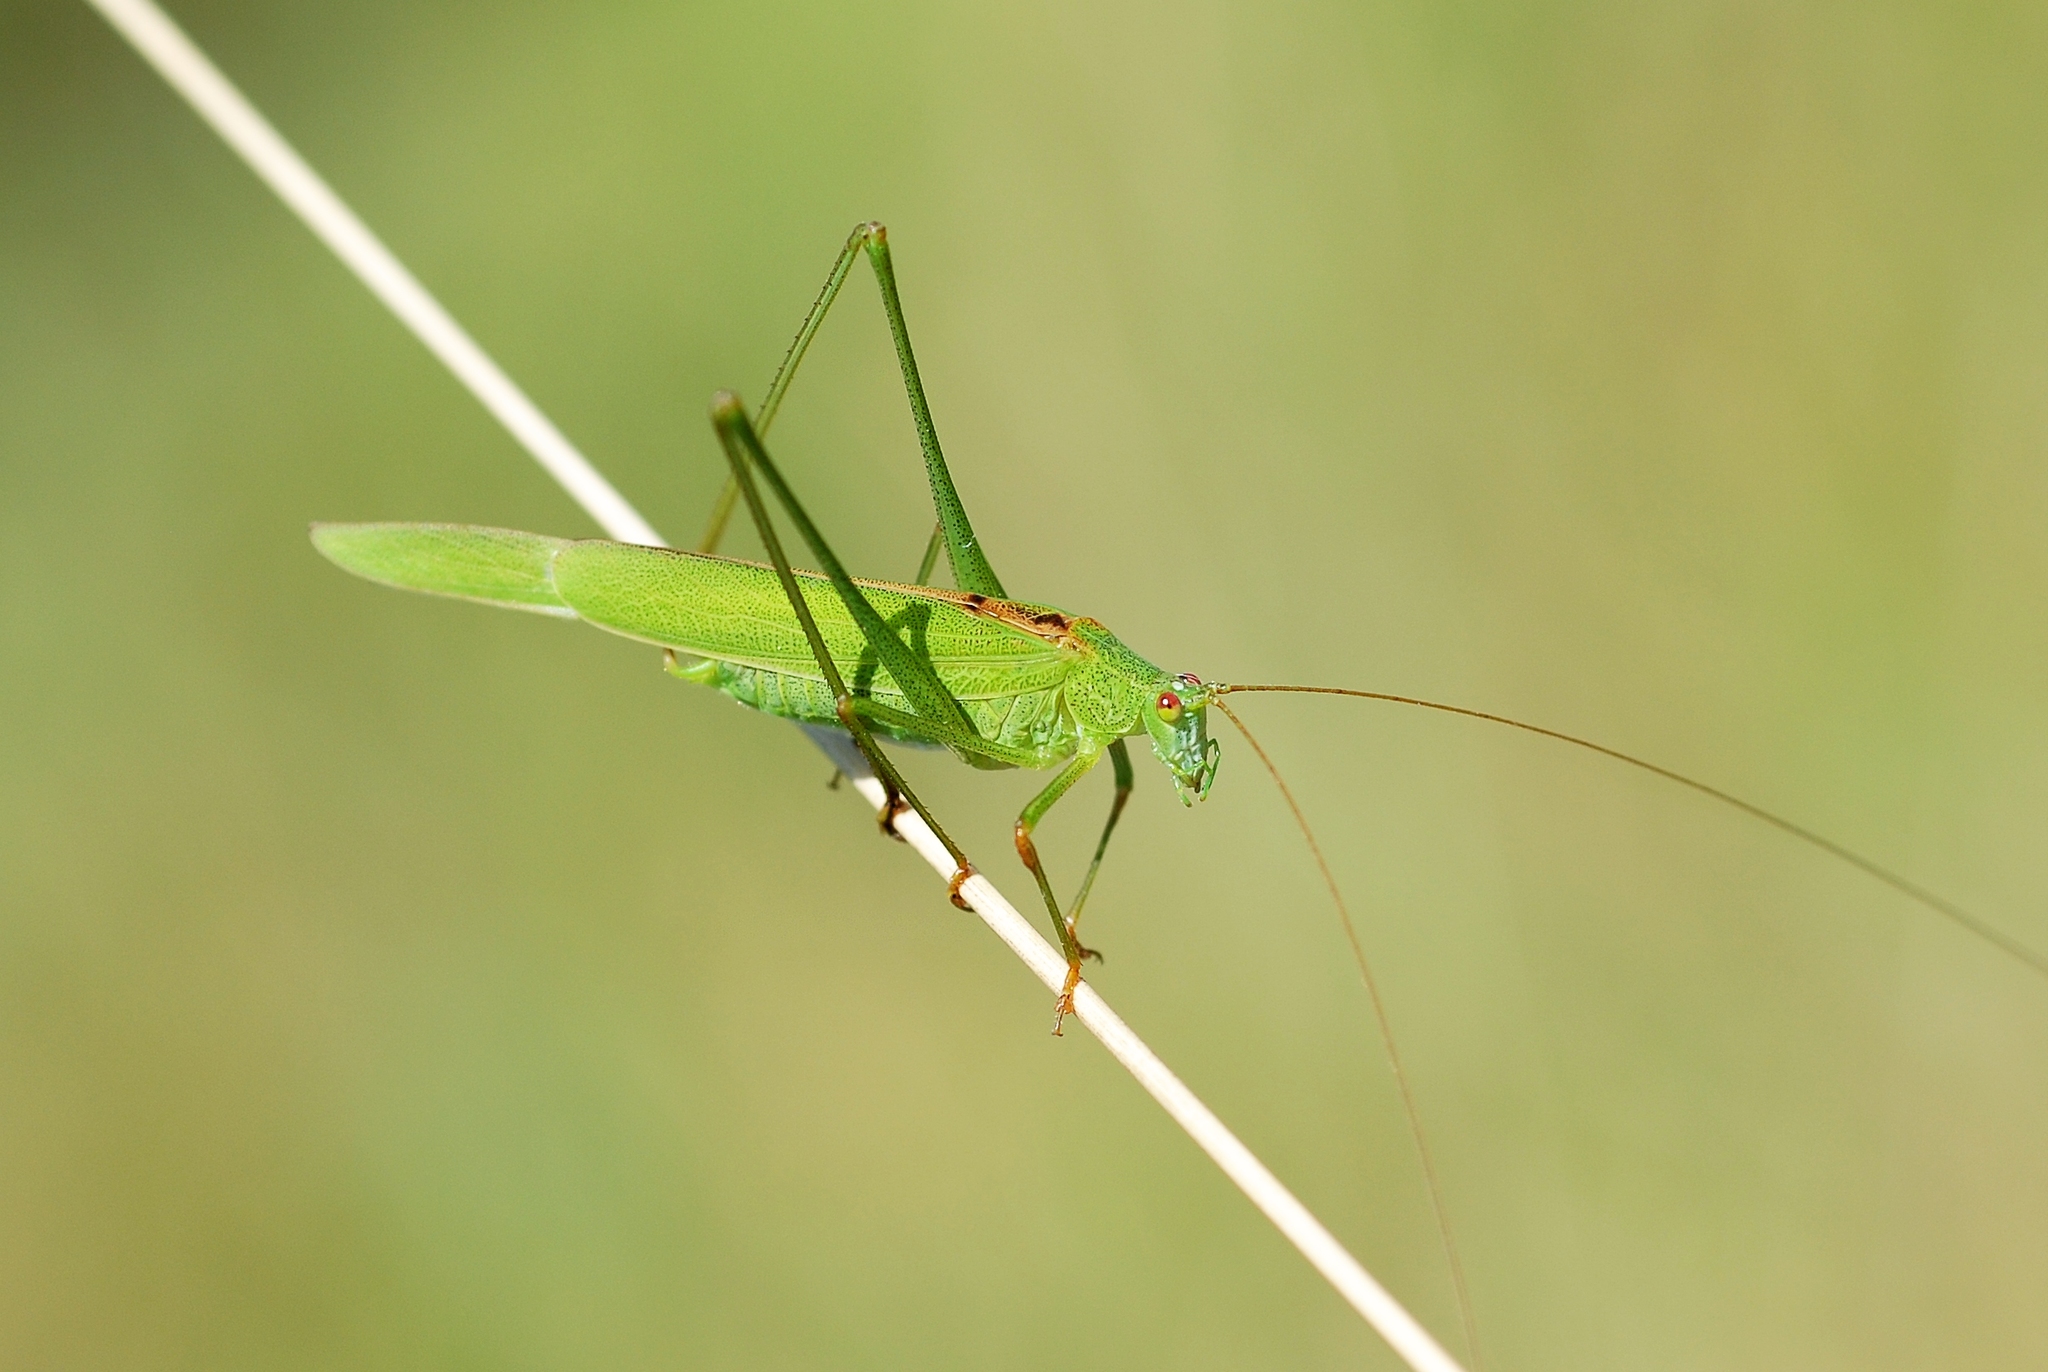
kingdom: Animalia
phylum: Arthropoda
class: Insecta
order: Orthoptera
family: Tettigoniidae
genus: Phaneroptera
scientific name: Phaneroptera falcata
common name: Sickle-bearing bush-cricket
